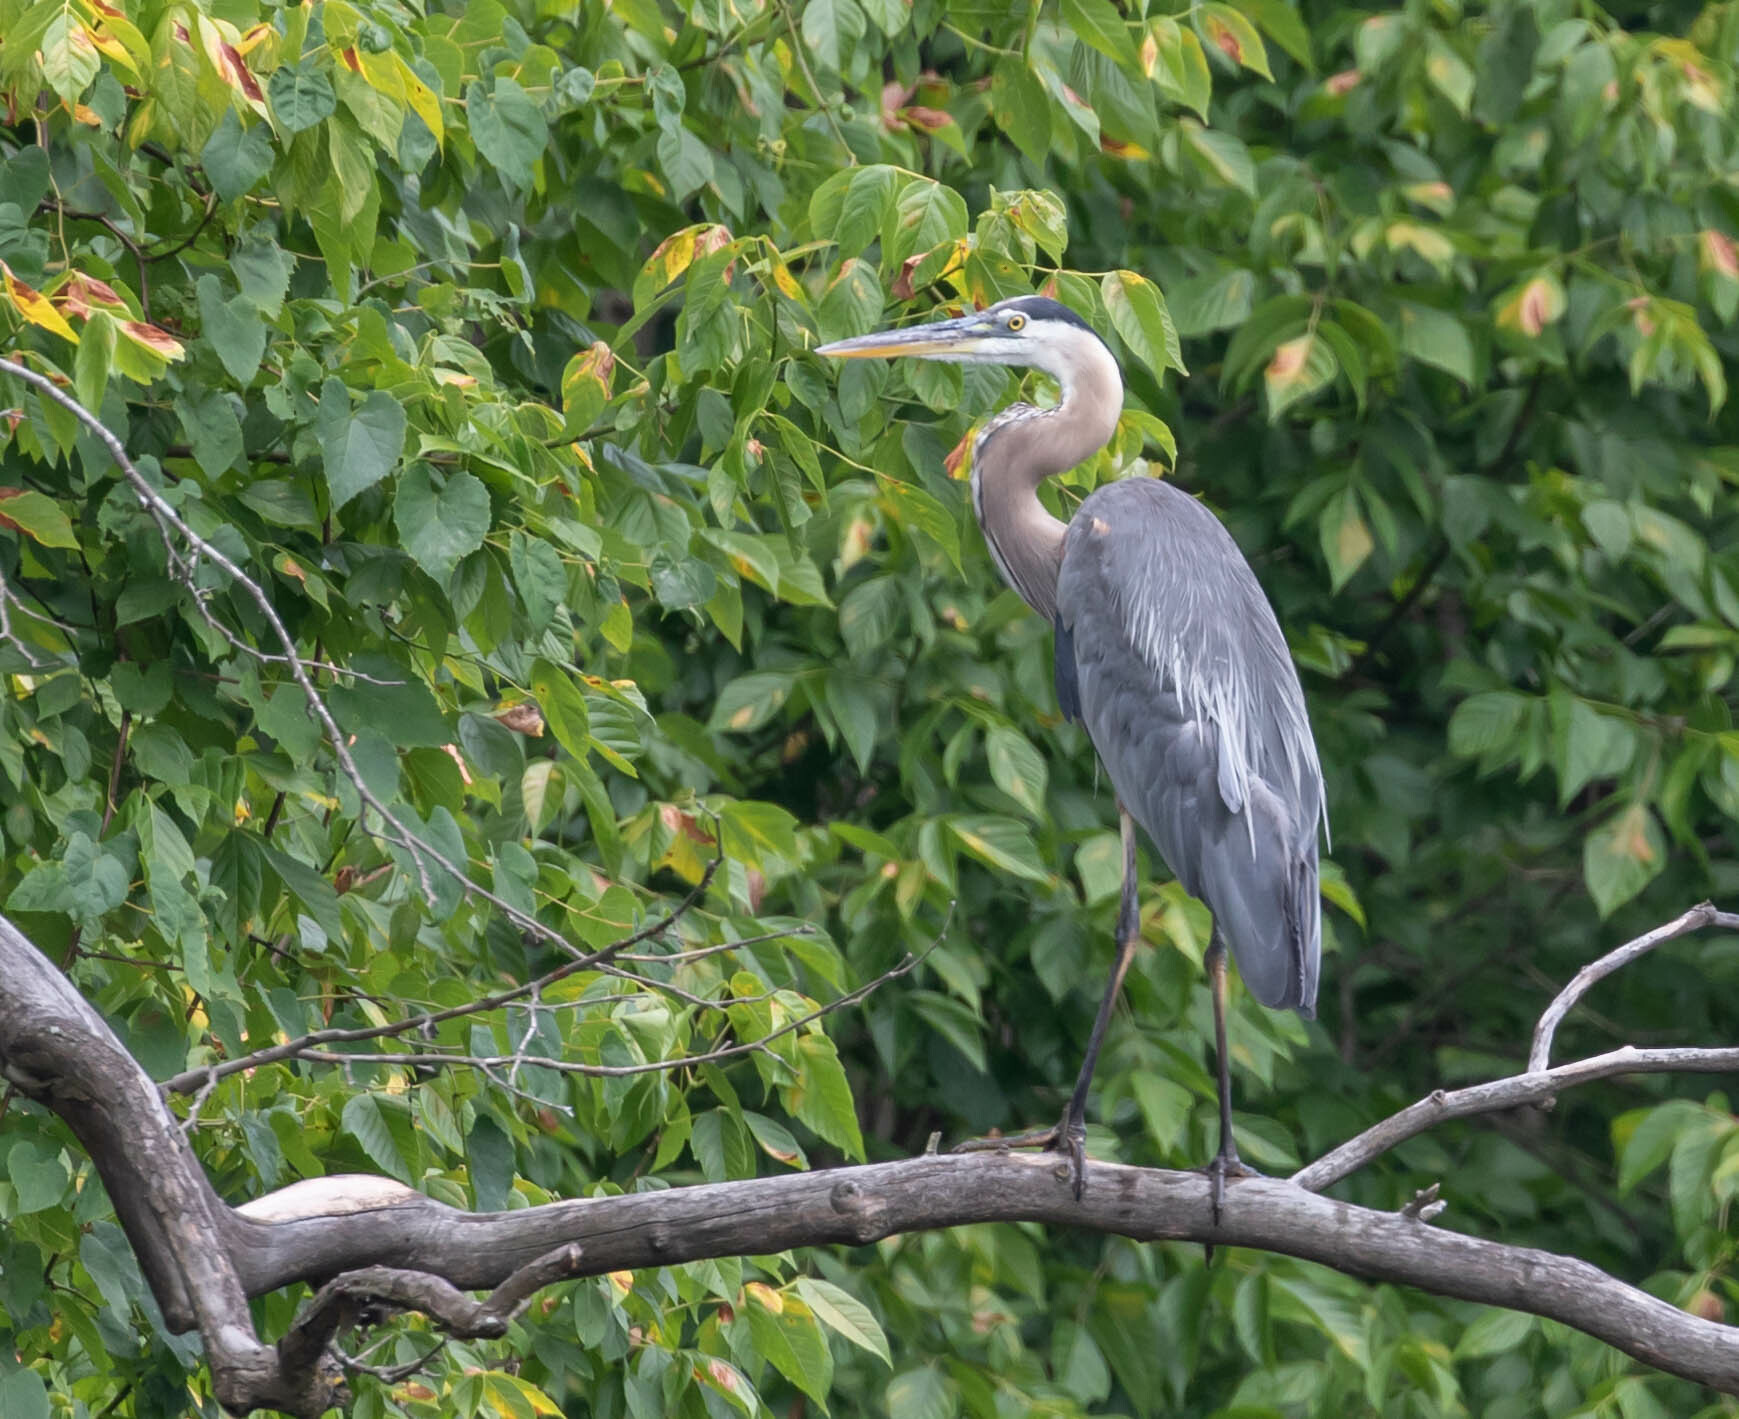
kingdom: Animalia
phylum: Chordata
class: Aves
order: Pelecaniformes
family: Ardeidae
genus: Ardea
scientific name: Ardea herodias
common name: Great blue heron
